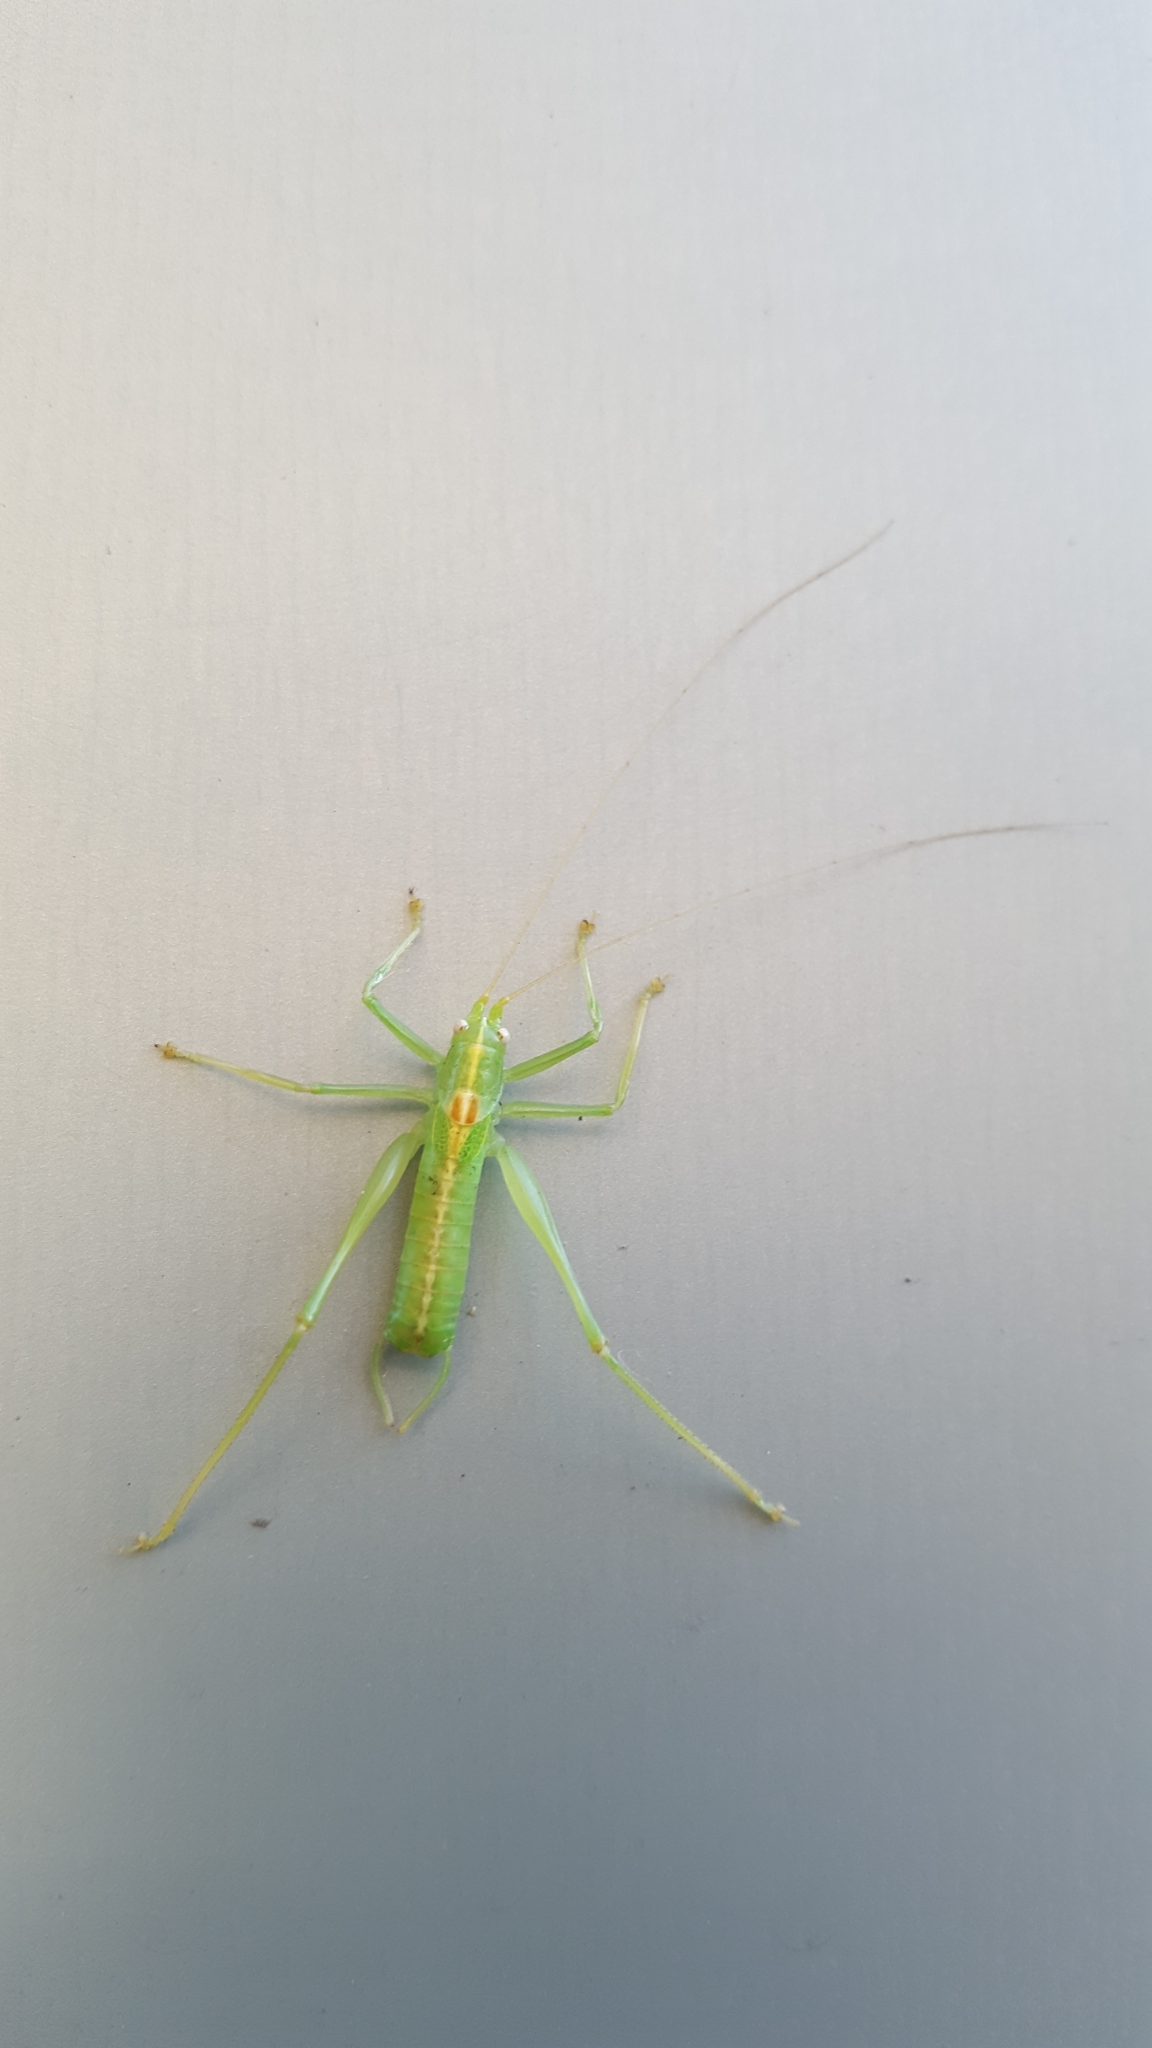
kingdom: Animalia
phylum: Arthropoda
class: Insecta
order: Orthoptera
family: Tettigoniidae
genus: Meconema
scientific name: Meconema meridionale
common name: Southern oak bush-cricket
